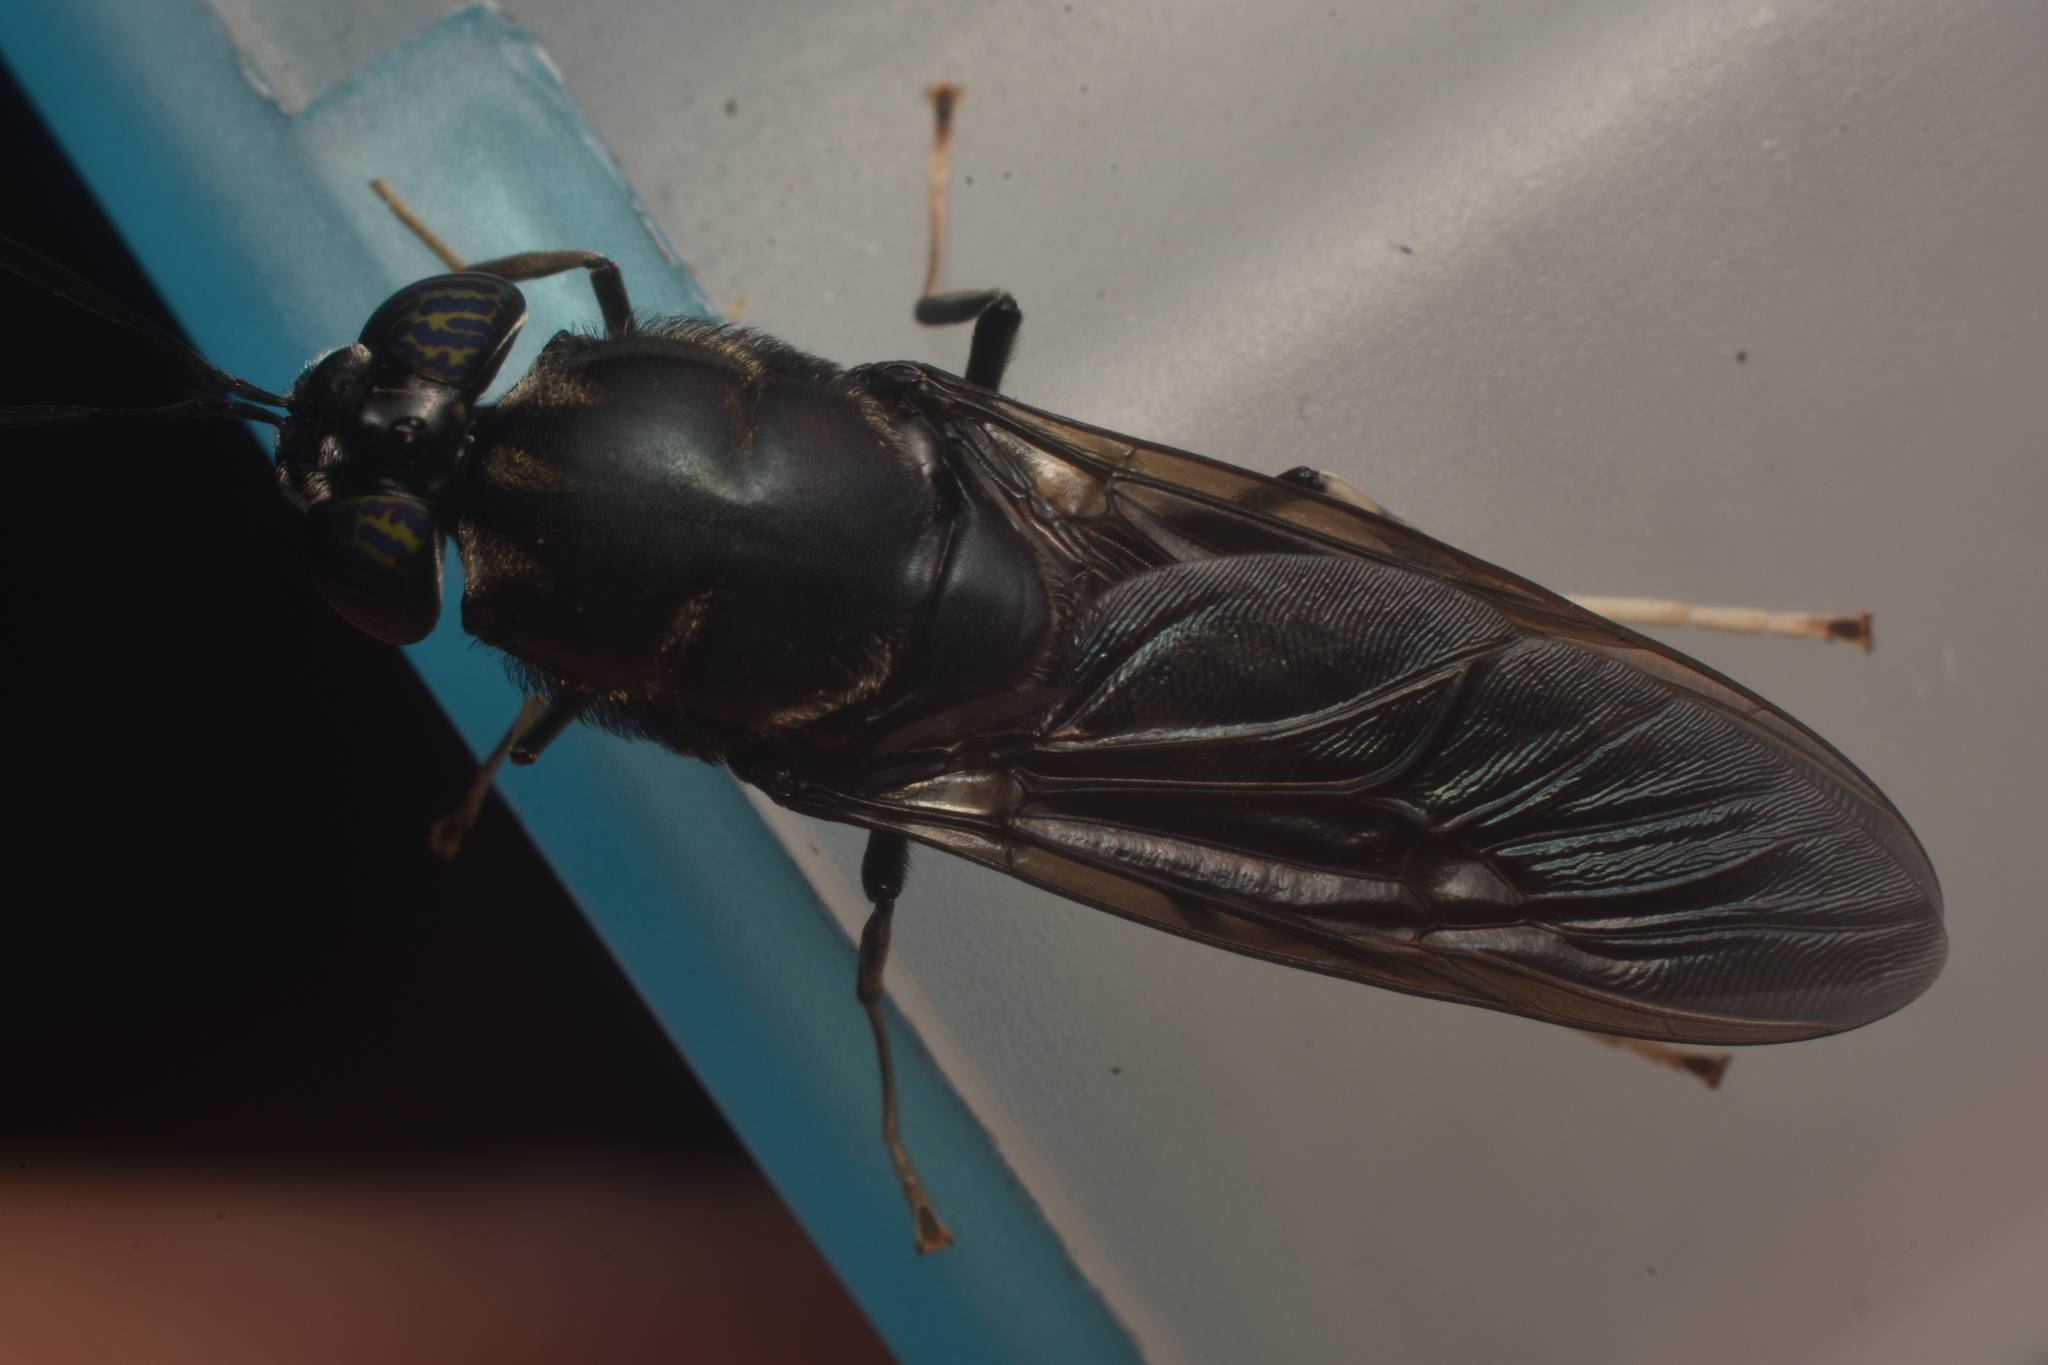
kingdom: Animalia
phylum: Arthropoda
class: Insecta
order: Diptera
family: Stratiomyidae
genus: Hermetia
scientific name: Hermetia illucens
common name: Black soldier fly
